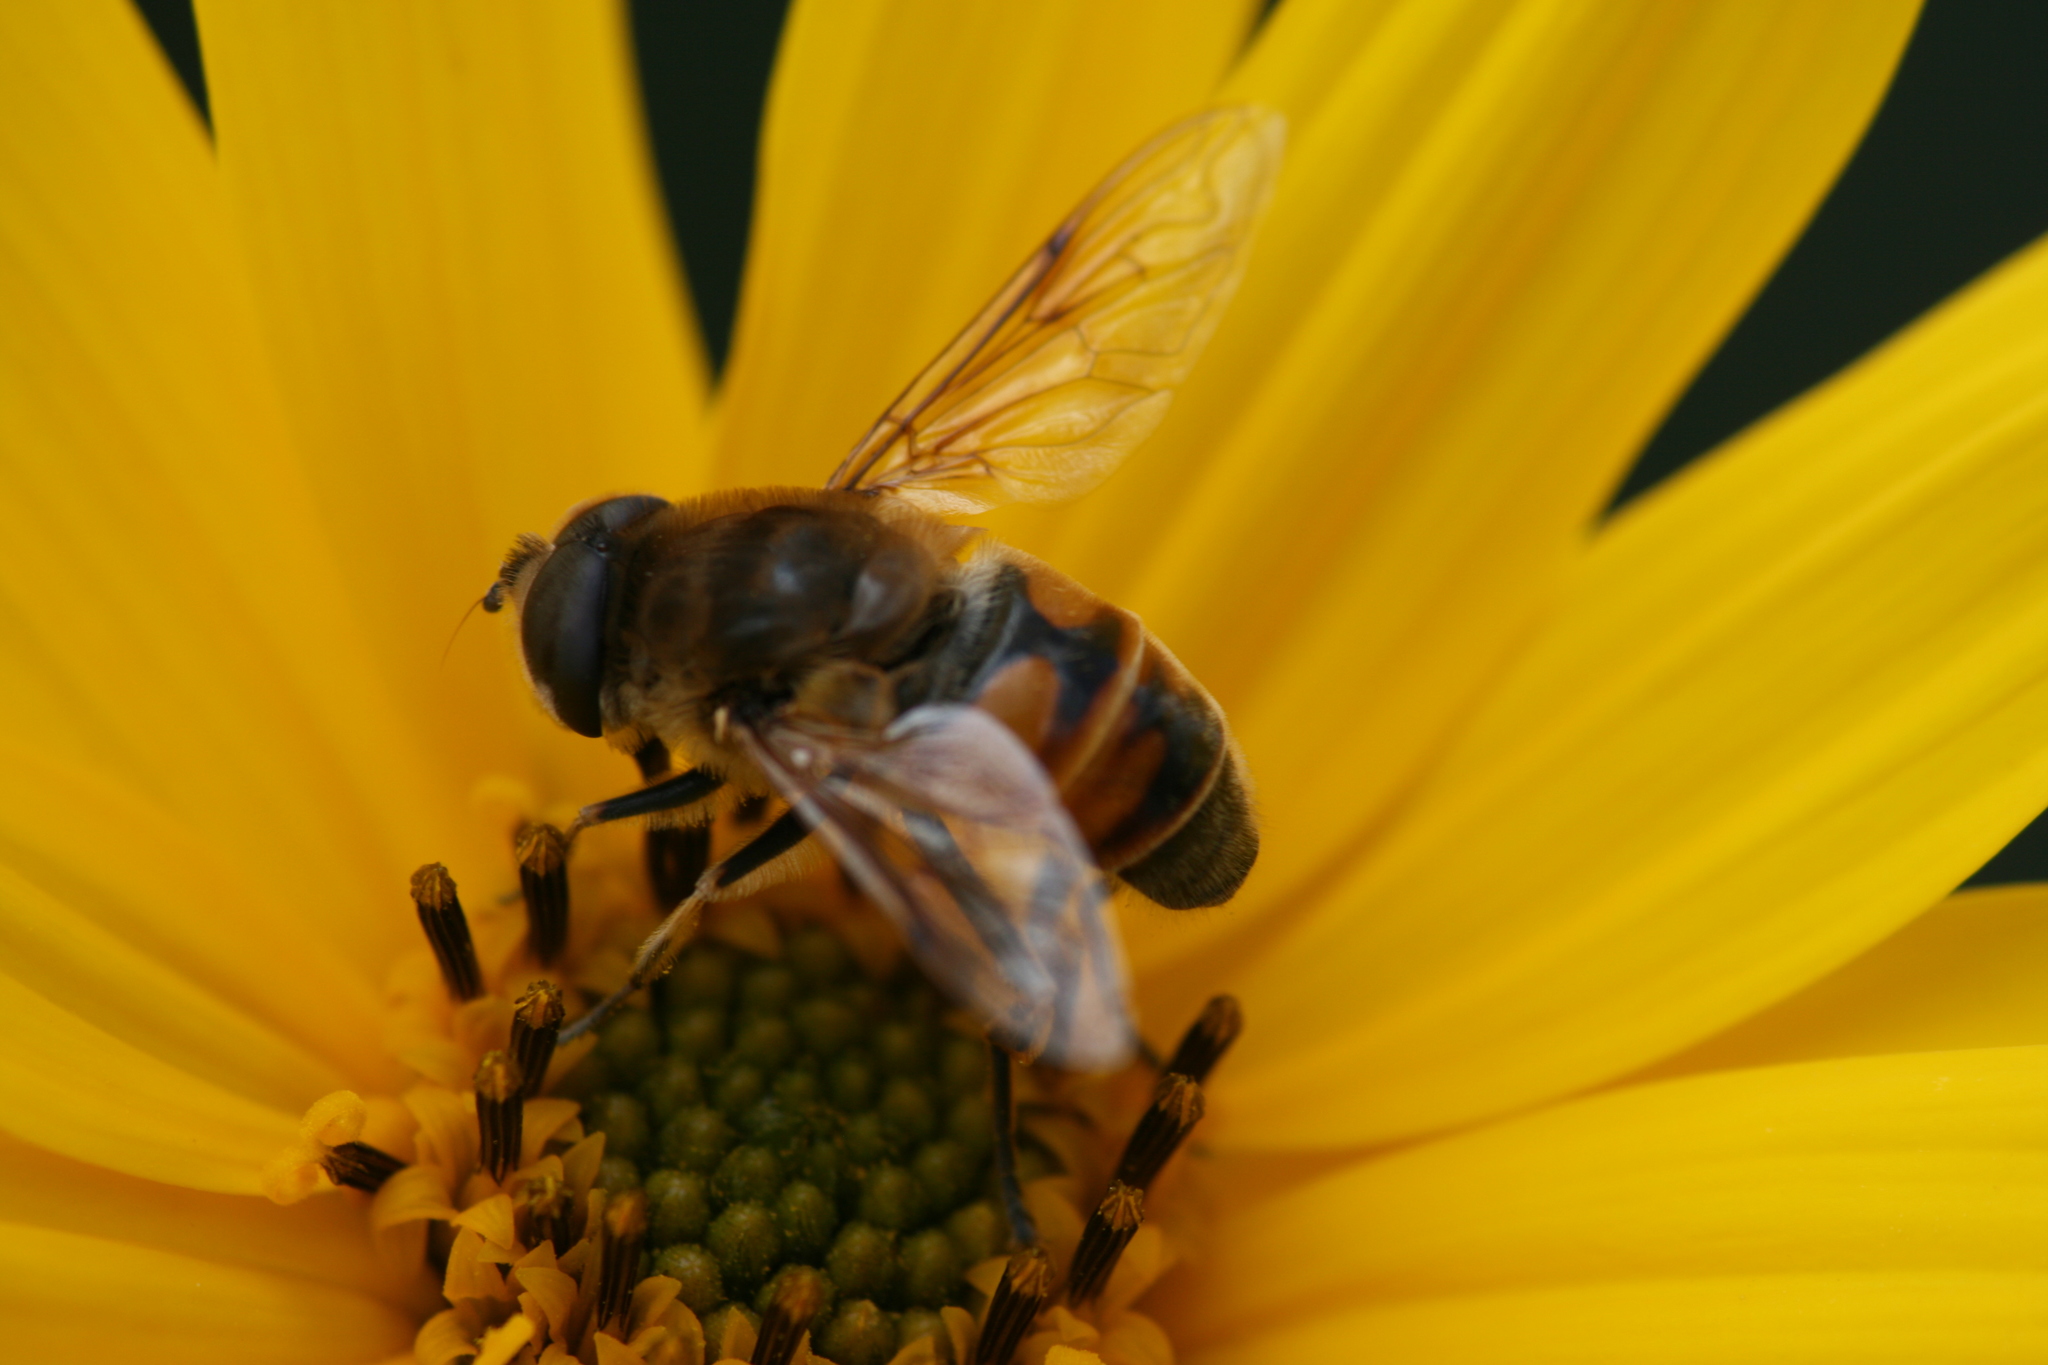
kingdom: Animalia
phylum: Arthropoda
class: Insecta
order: Diptera
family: Syrphidae
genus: Eristalis
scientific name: Eristalis tenax
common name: Drone fly
